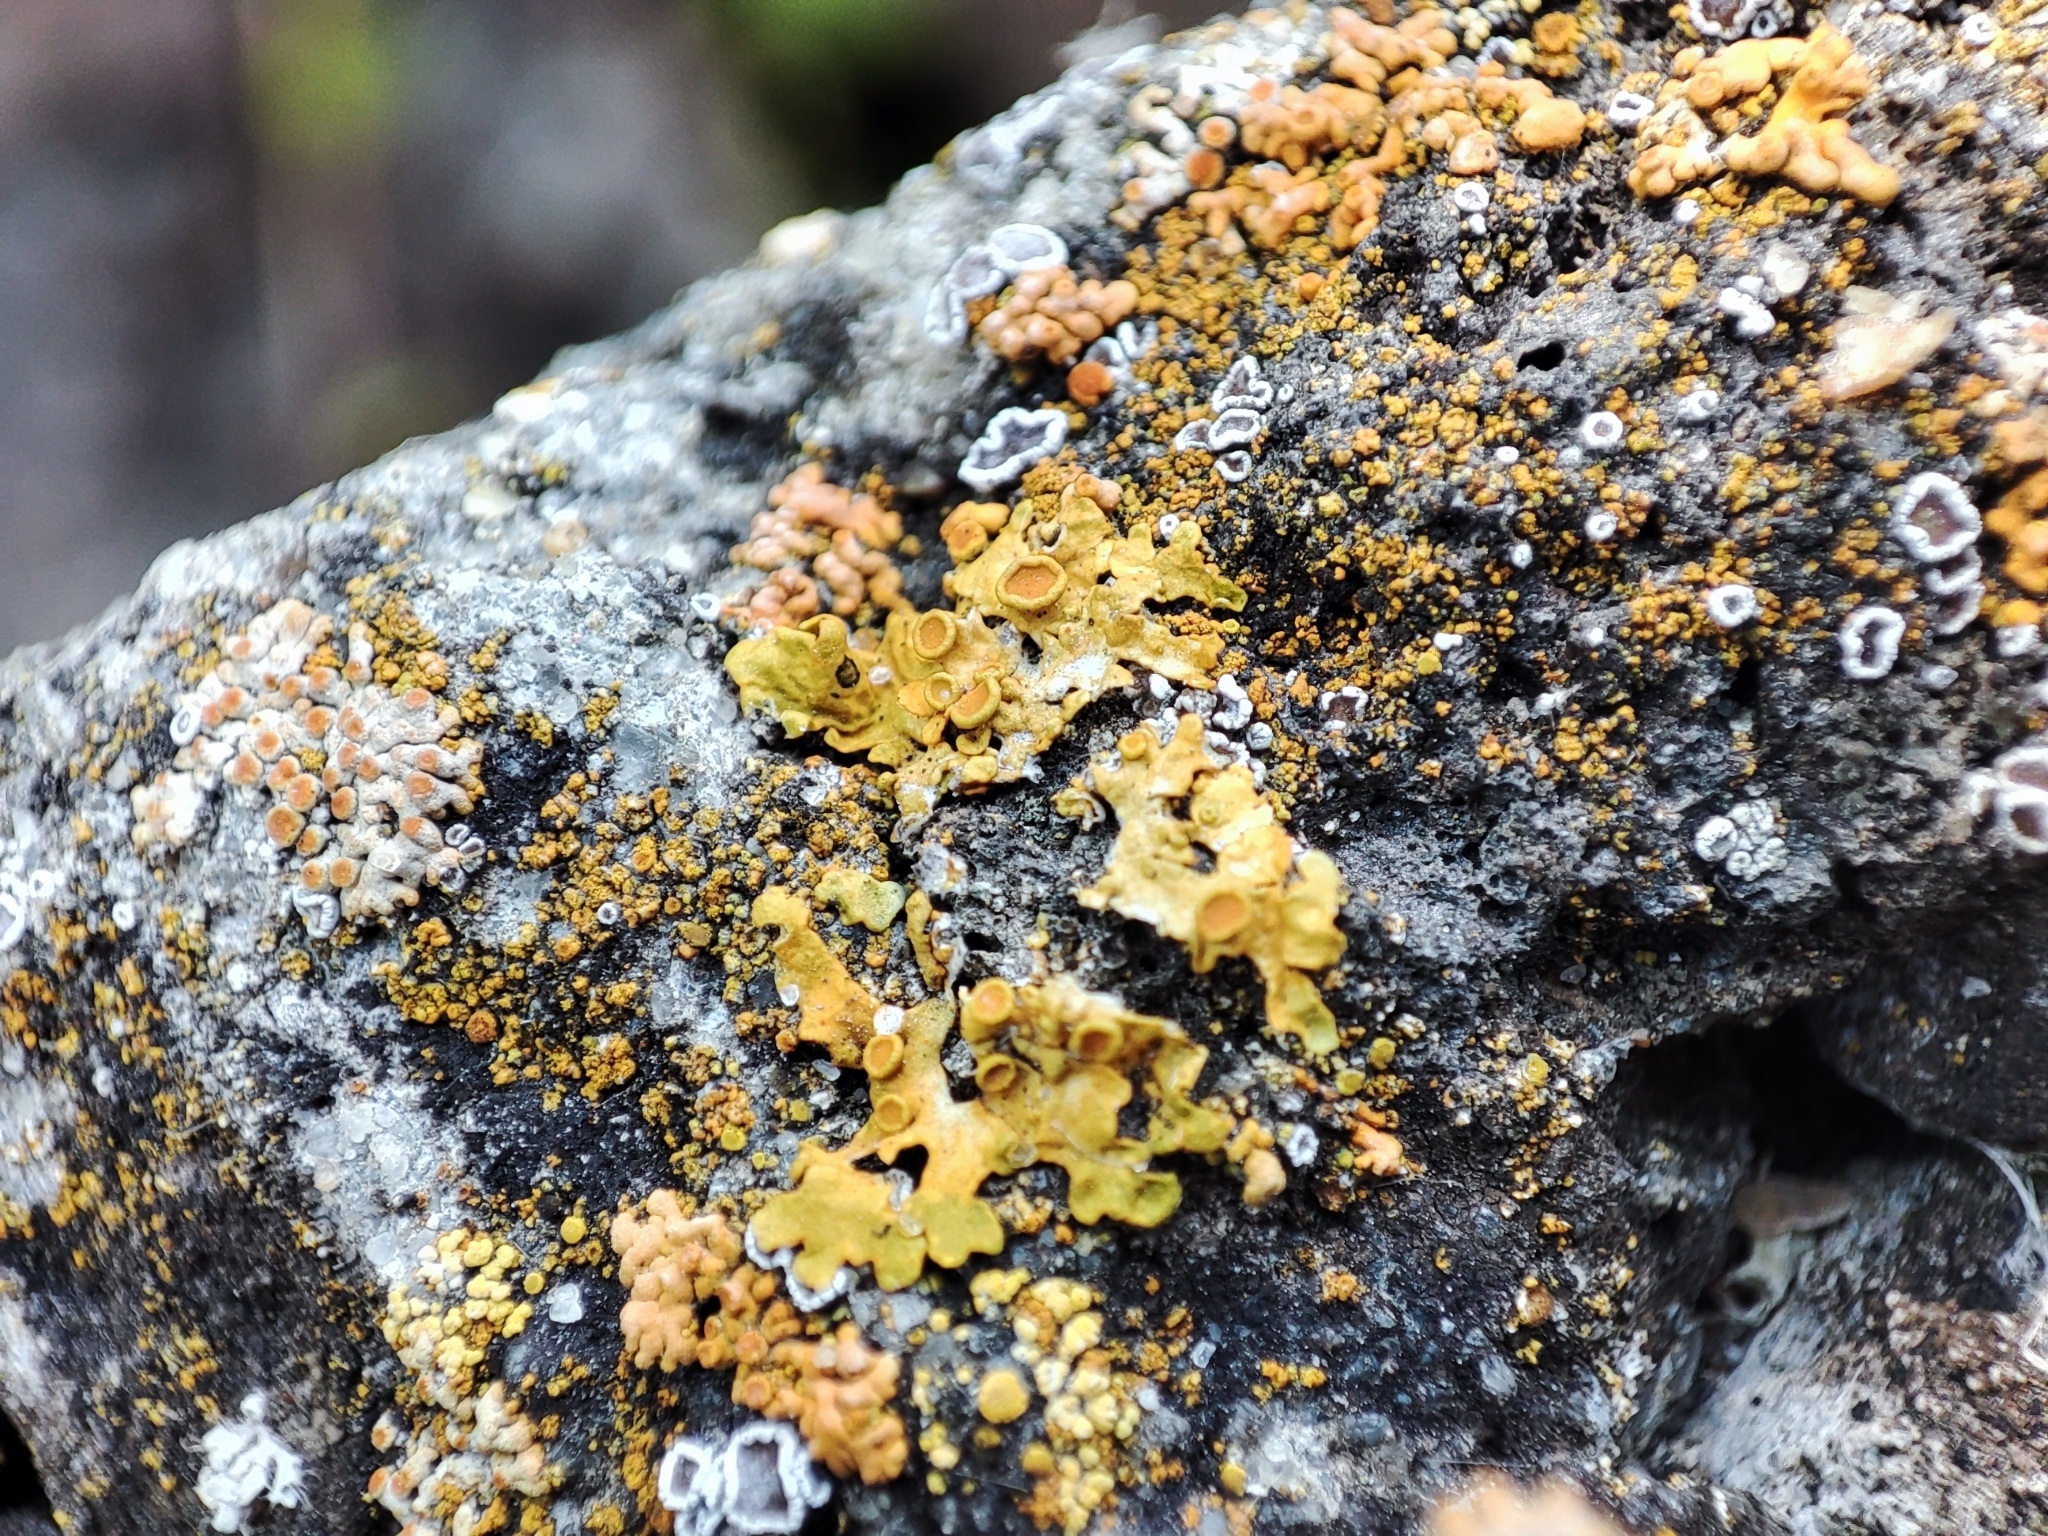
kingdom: Fungi
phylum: Ascomycota
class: Lecanoromycetes
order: Teloschistales
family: Teloschistaceae
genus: Xanthoria
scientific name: Xanthoria parietina
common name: Common orange lichen
